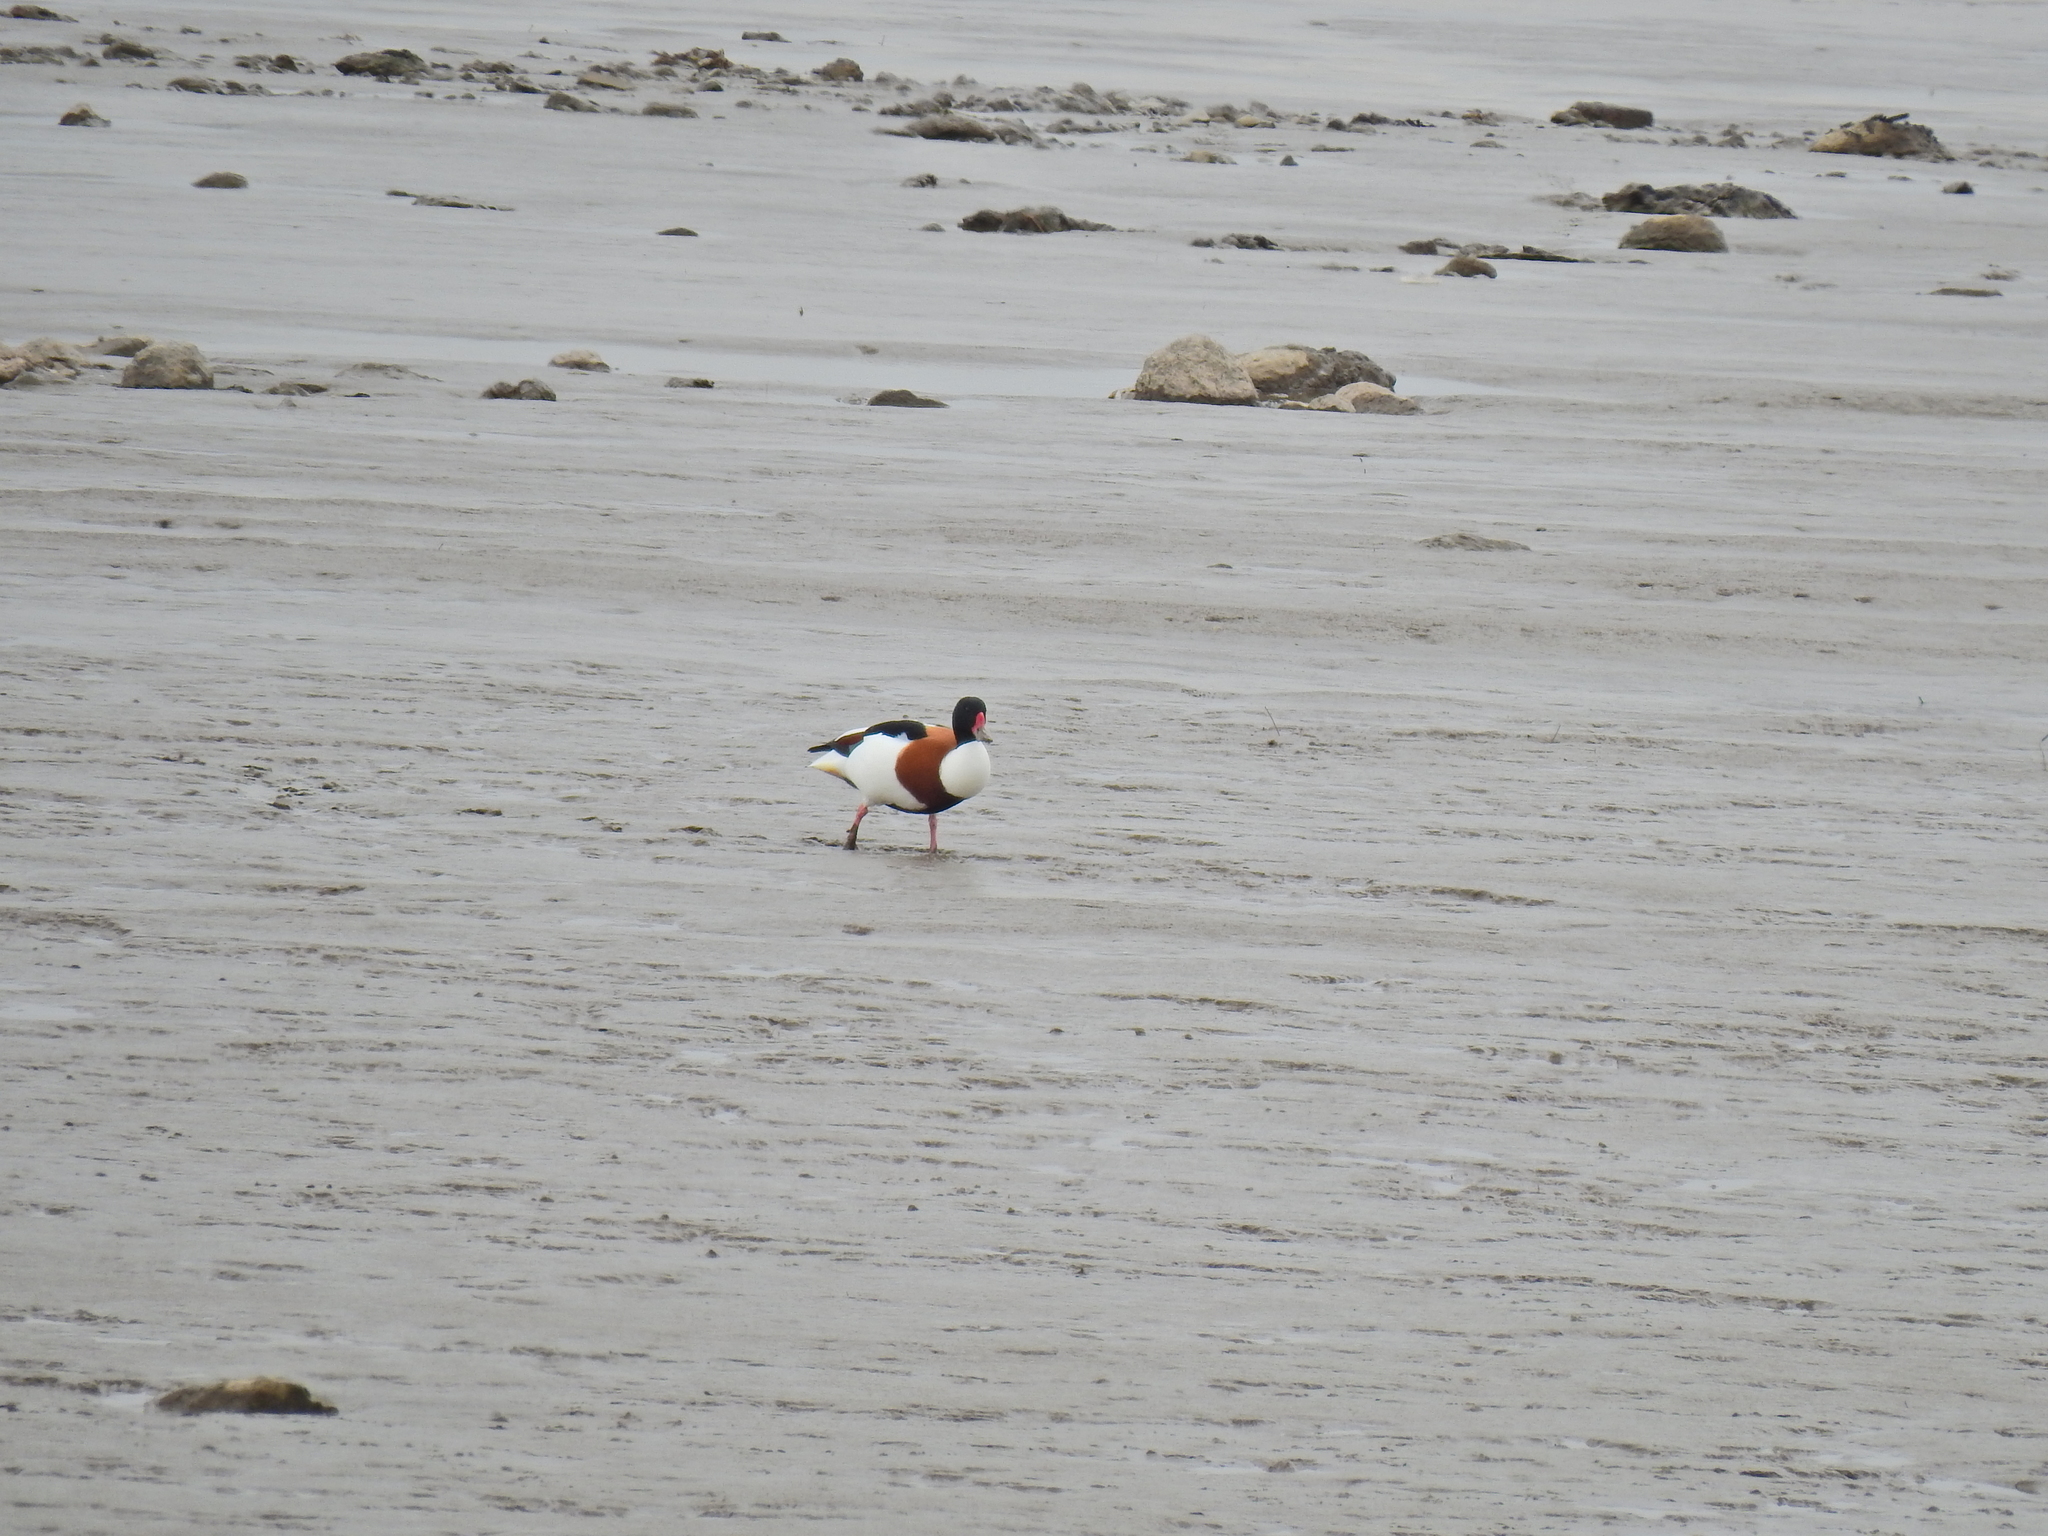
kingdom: Animalia
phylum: Chordata
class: Aves
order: Anseriformes
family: Anatidae
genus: Tadorna
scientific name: Tadorna tadorna
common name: Common shelduck
